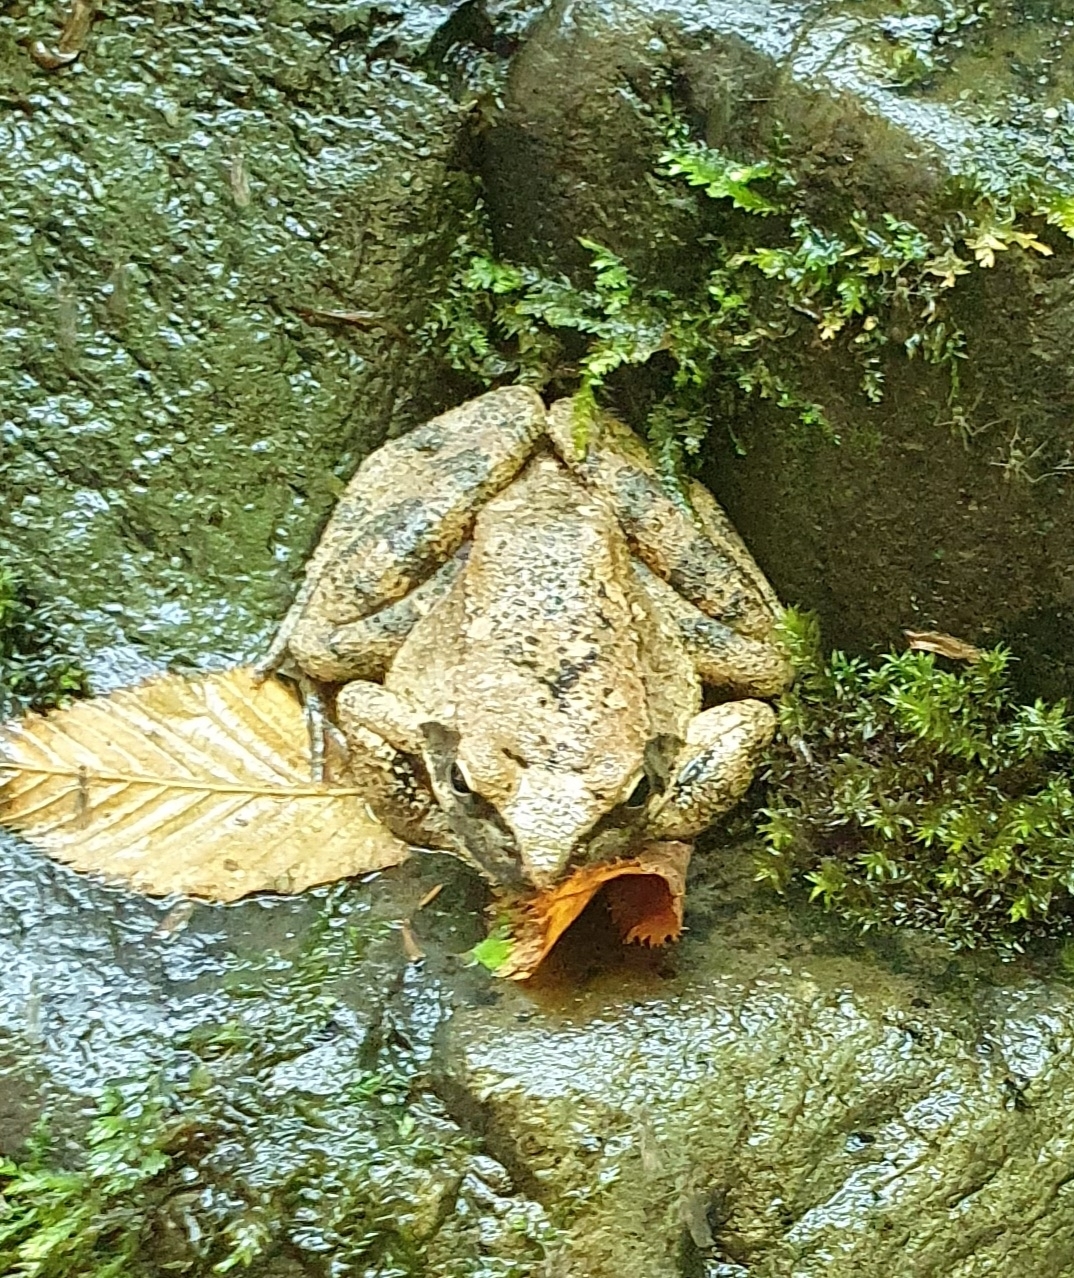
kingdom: Animalia
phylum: Chordata
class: Amphibia
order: Anura
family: Ranidae
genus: Rana
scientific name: Rana italica
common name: Italian stream frog
